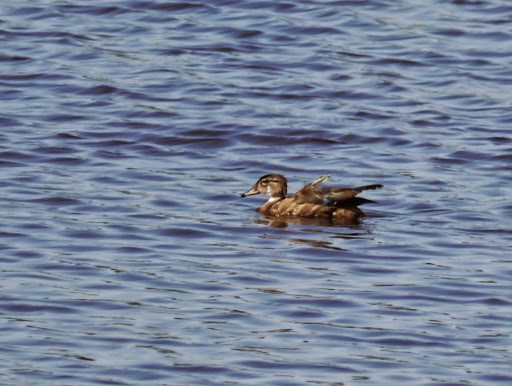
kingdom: Animalia
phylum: Chordata
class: Aves
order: Anseriformes
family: Anatidae
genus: Aix
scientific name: Aix sponsa
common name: Wood duck
